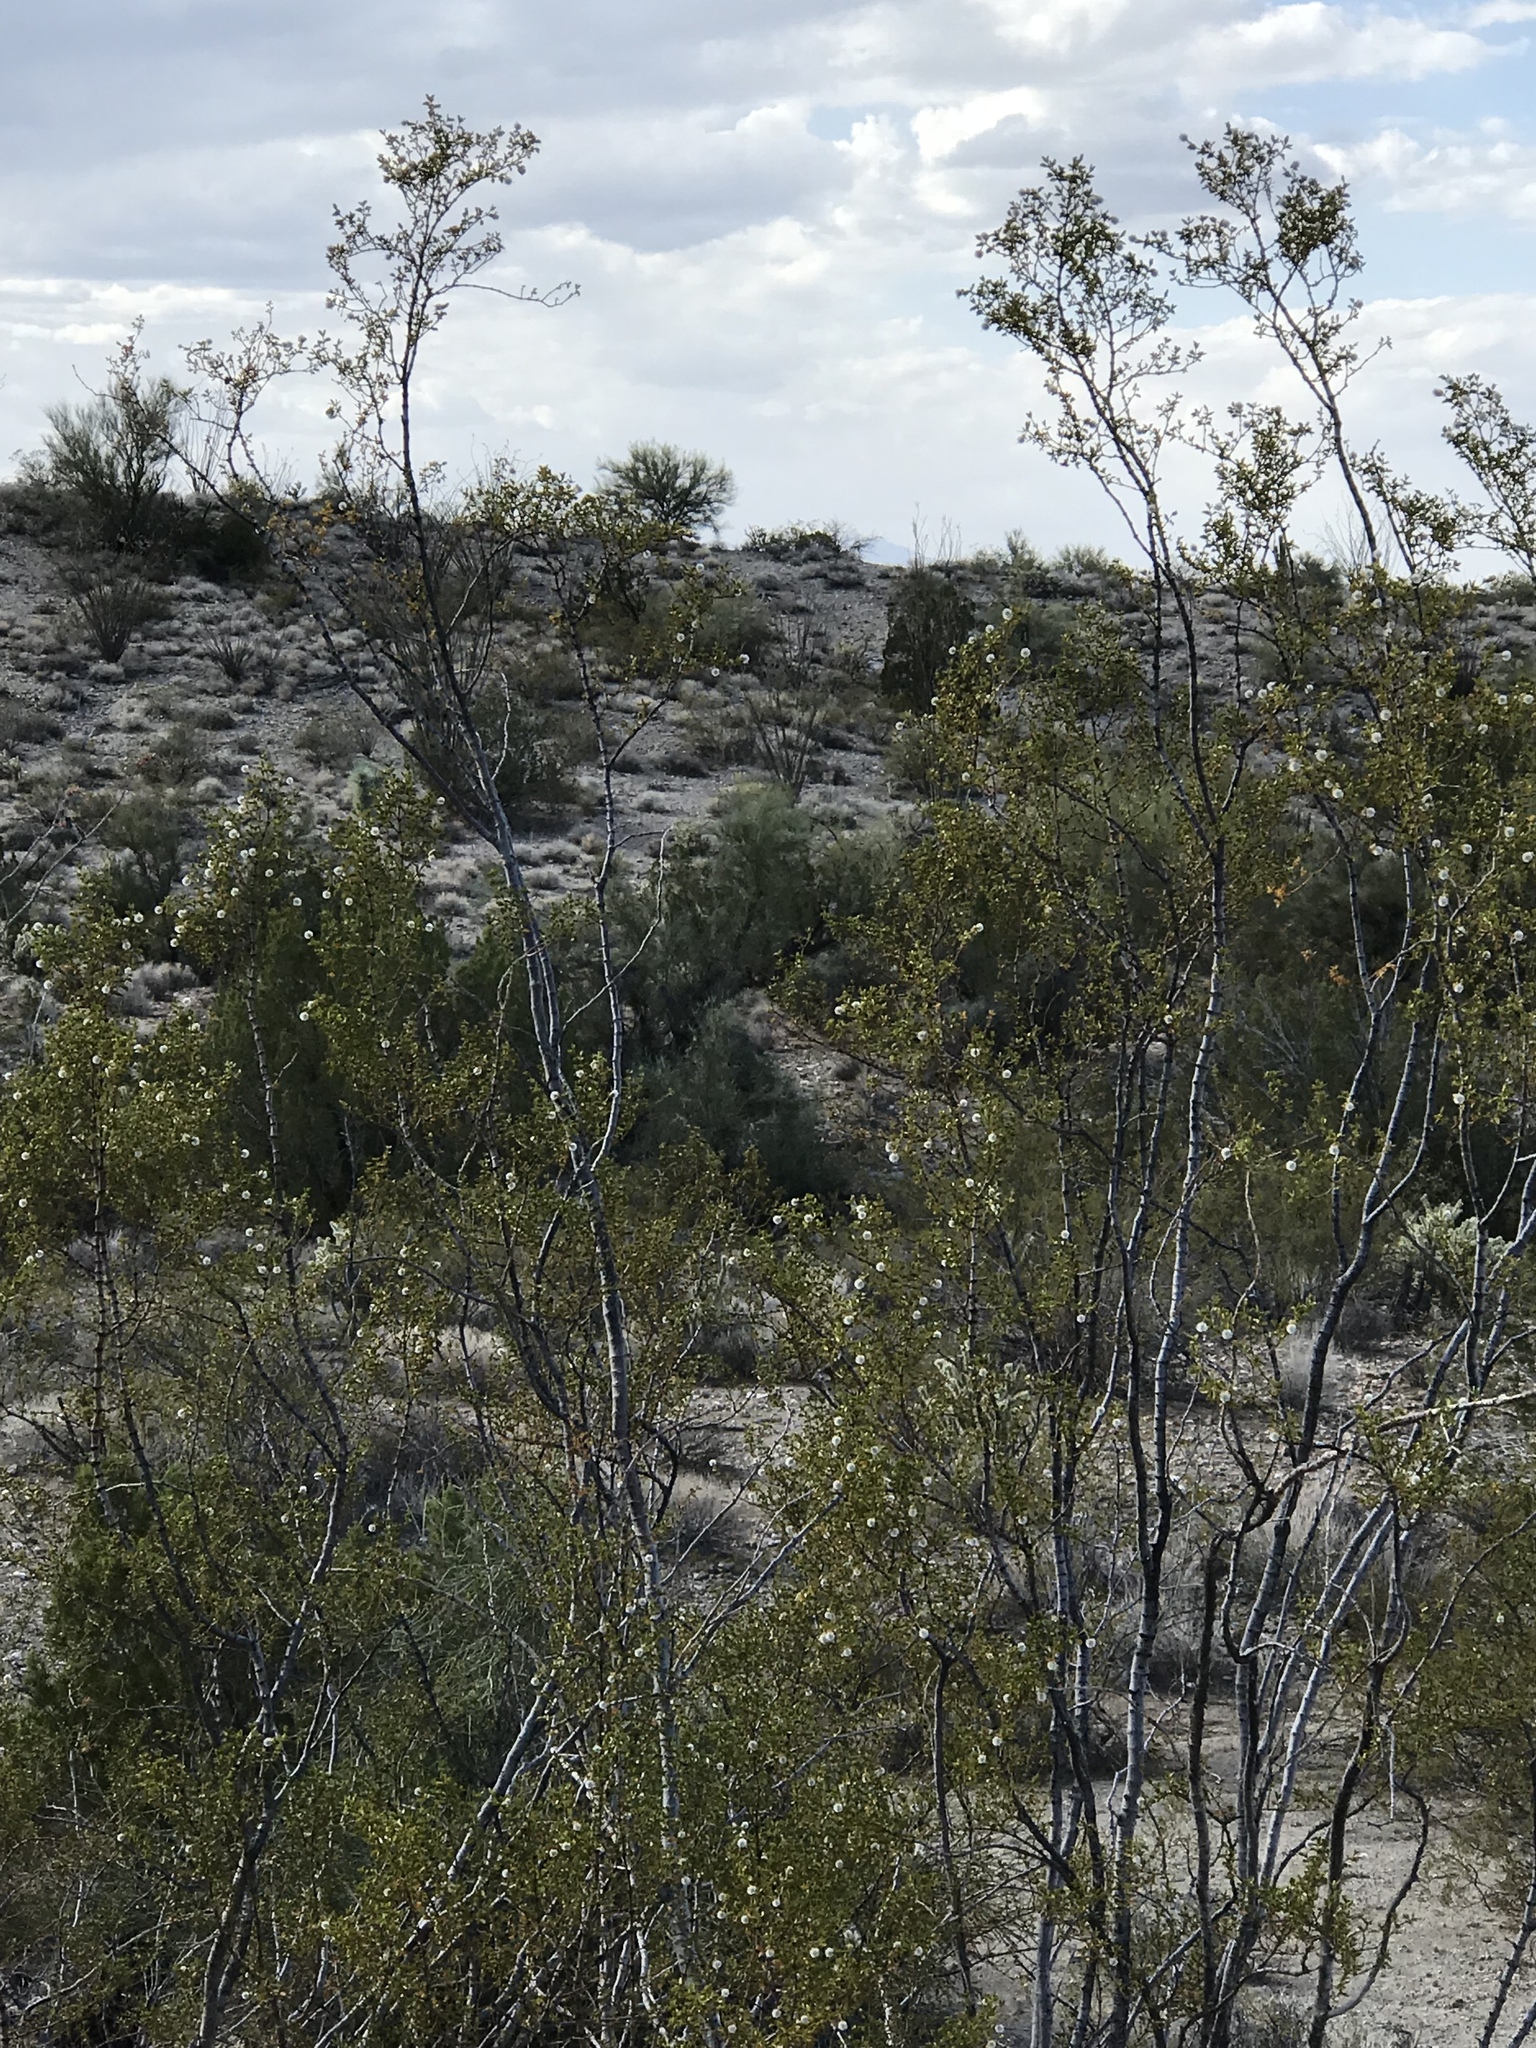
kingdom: Plantae
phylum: Tracheophyta
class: Magnoliopsida
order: Zygophyllales
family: Zygophyllaceae
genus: Larrea
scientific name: Larrea tridentata
